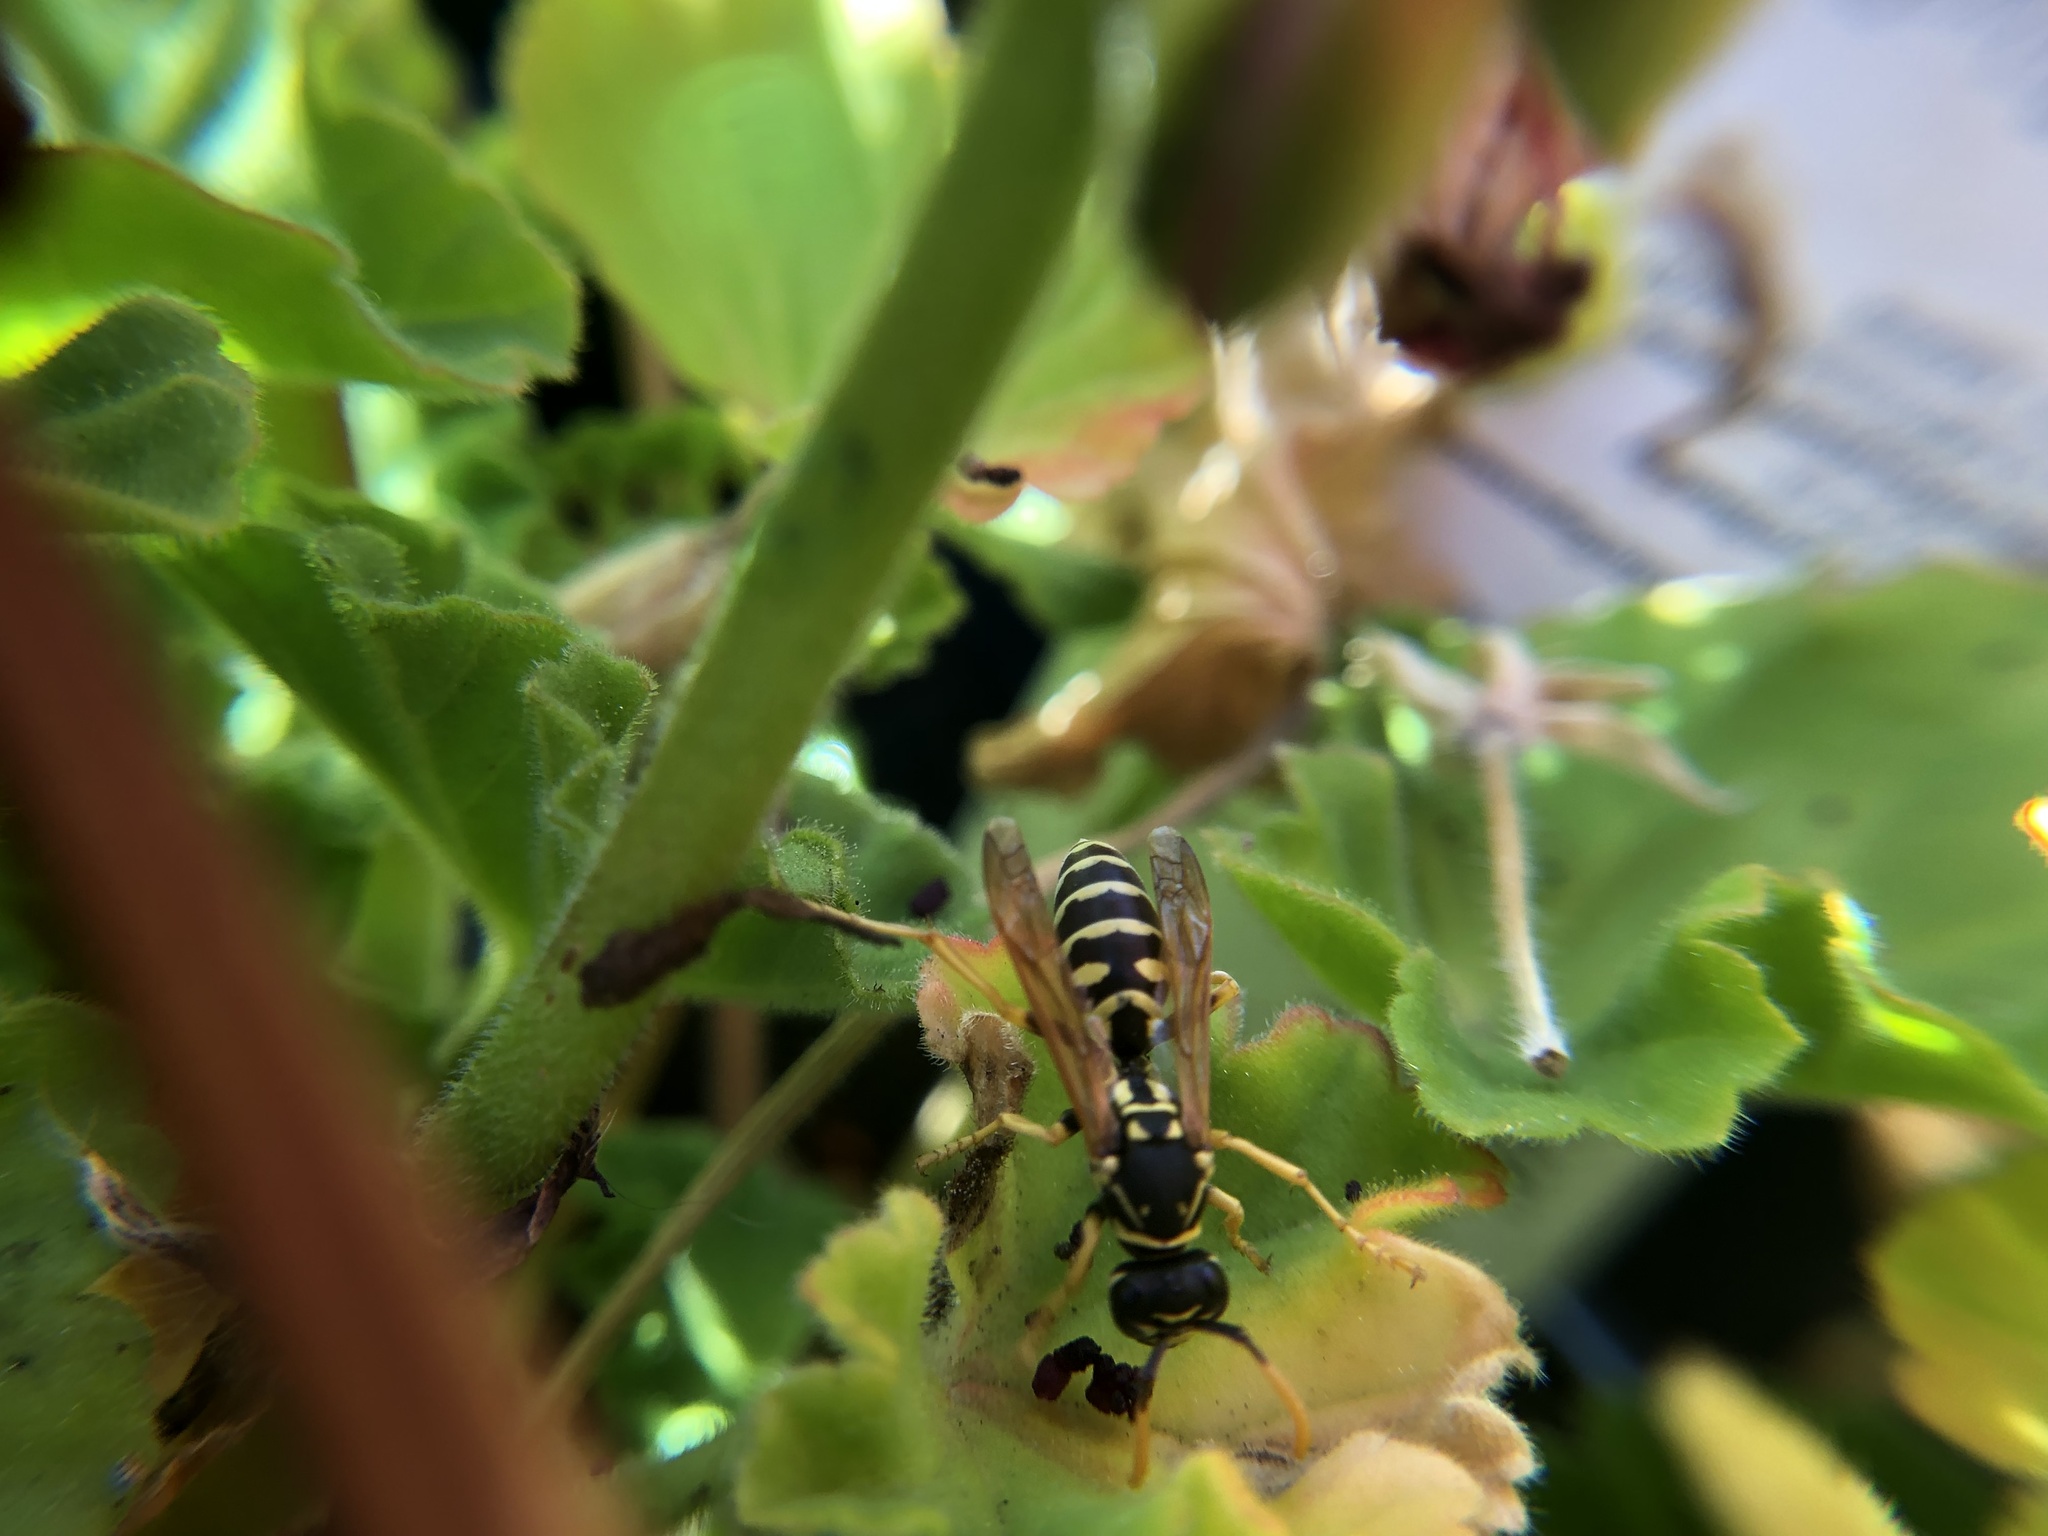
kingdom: Animalia
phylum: Arthropoda
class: Insecta
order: Hymenoptera
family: Eumenidae
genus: Polistes
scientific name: Polistes dominula
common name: Paper wasp
